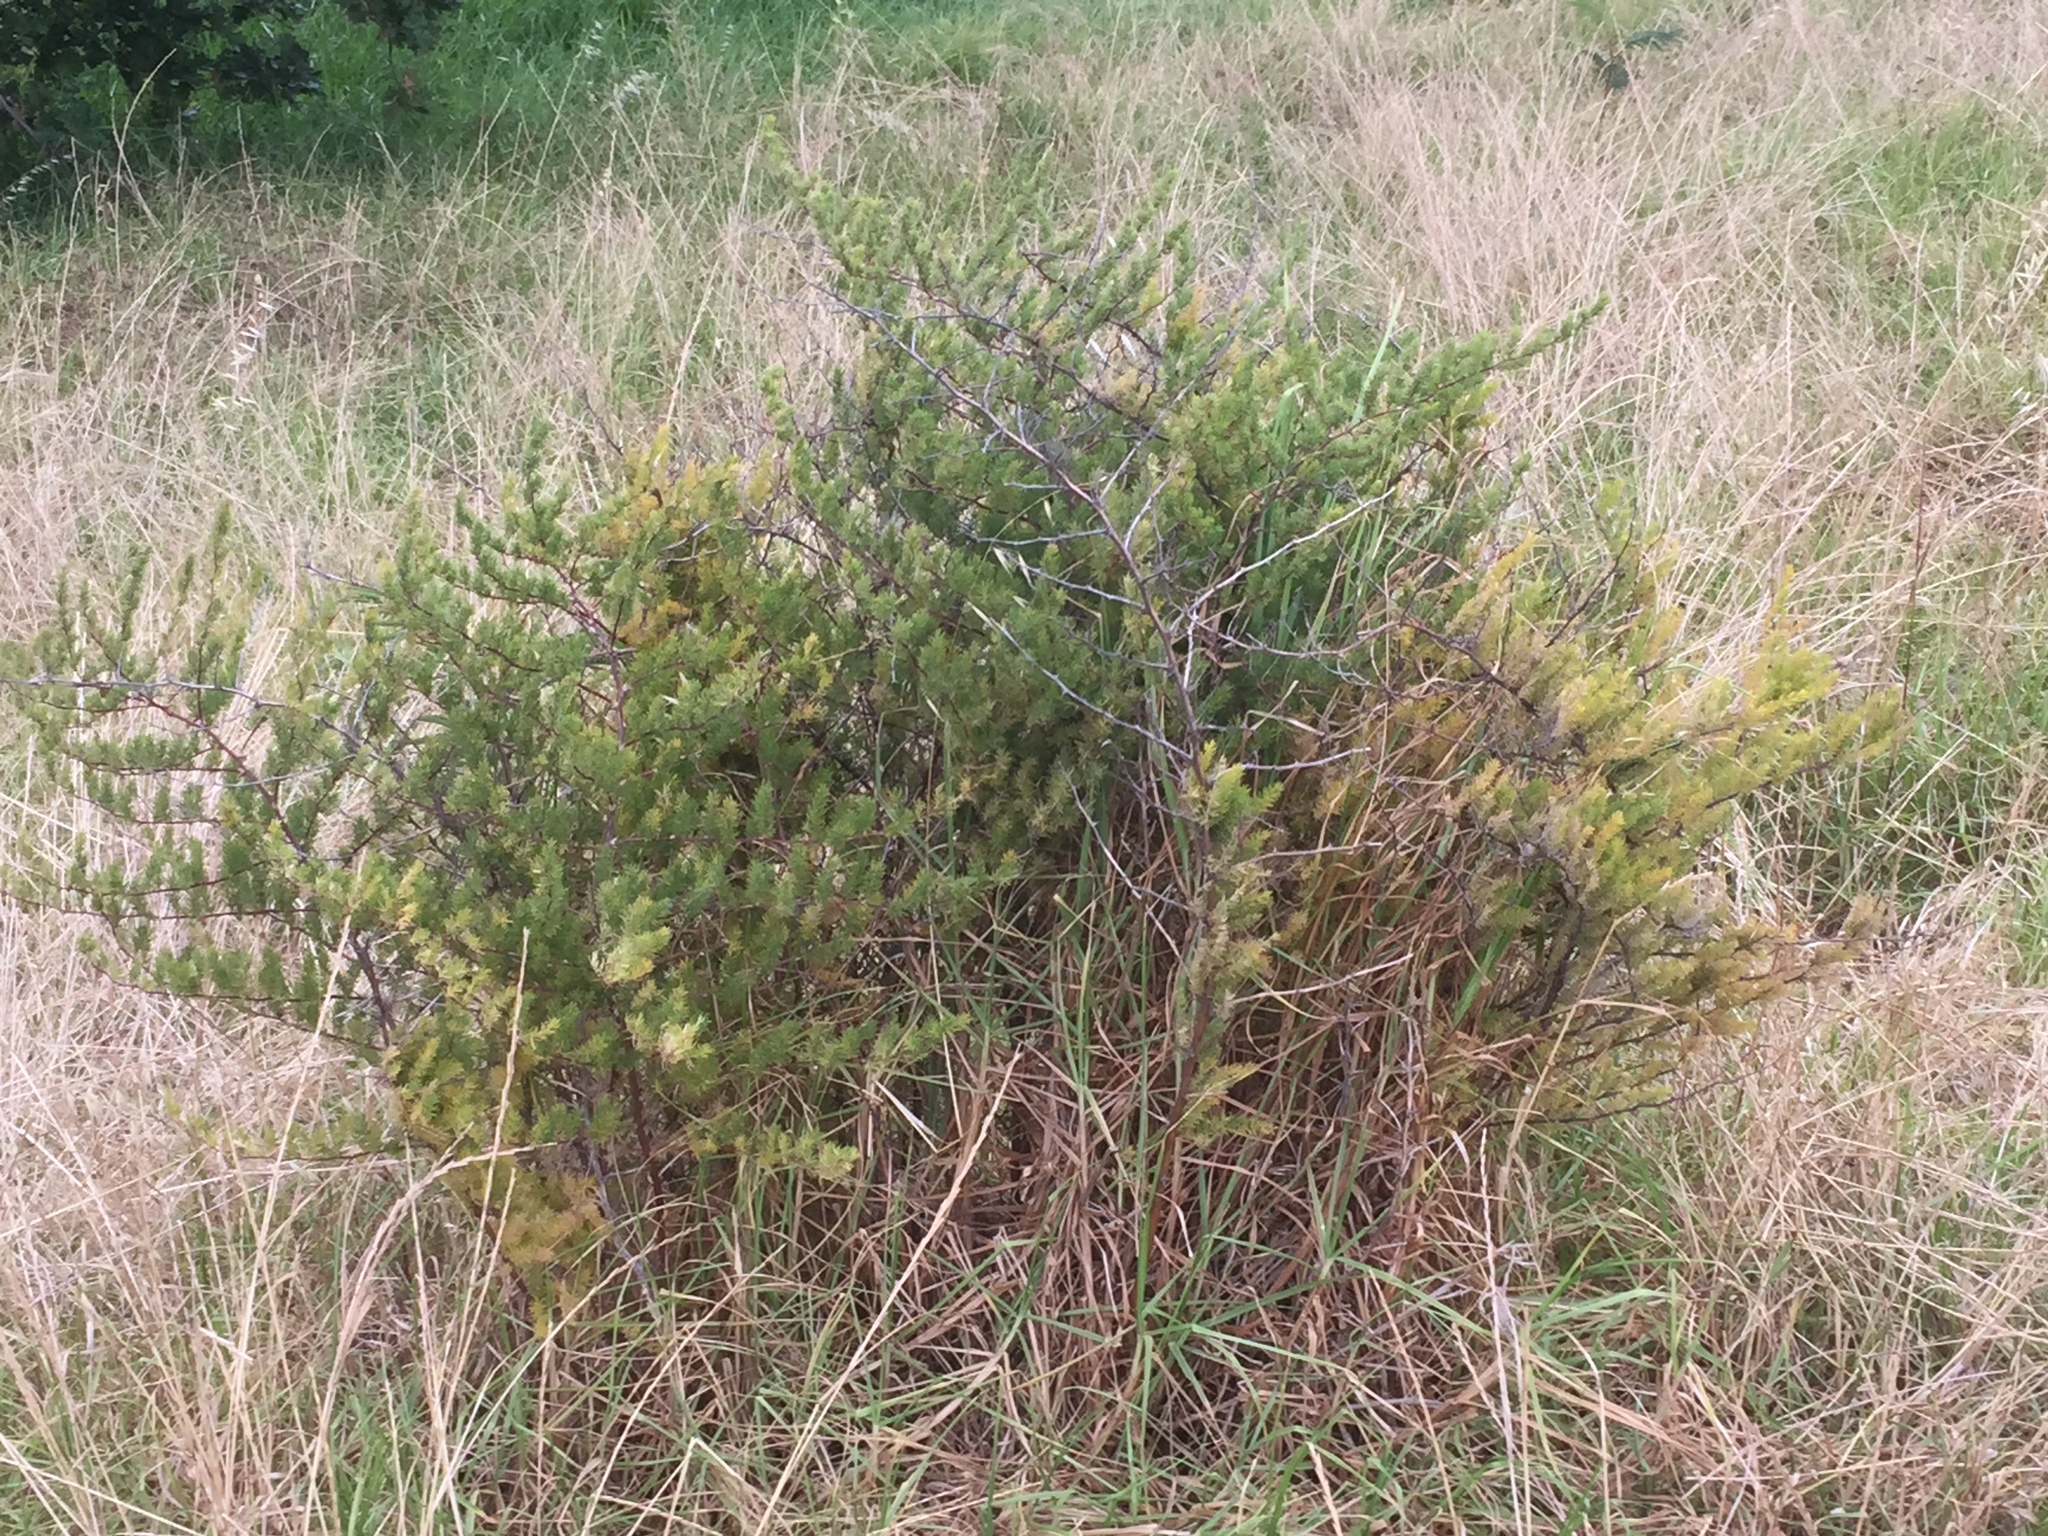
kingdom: Plantae
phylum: Tracheophyta
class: Liliopsida
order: Asparagales
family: Asparagaceae
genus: Asparagus
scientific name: Asparagus rubicundus
